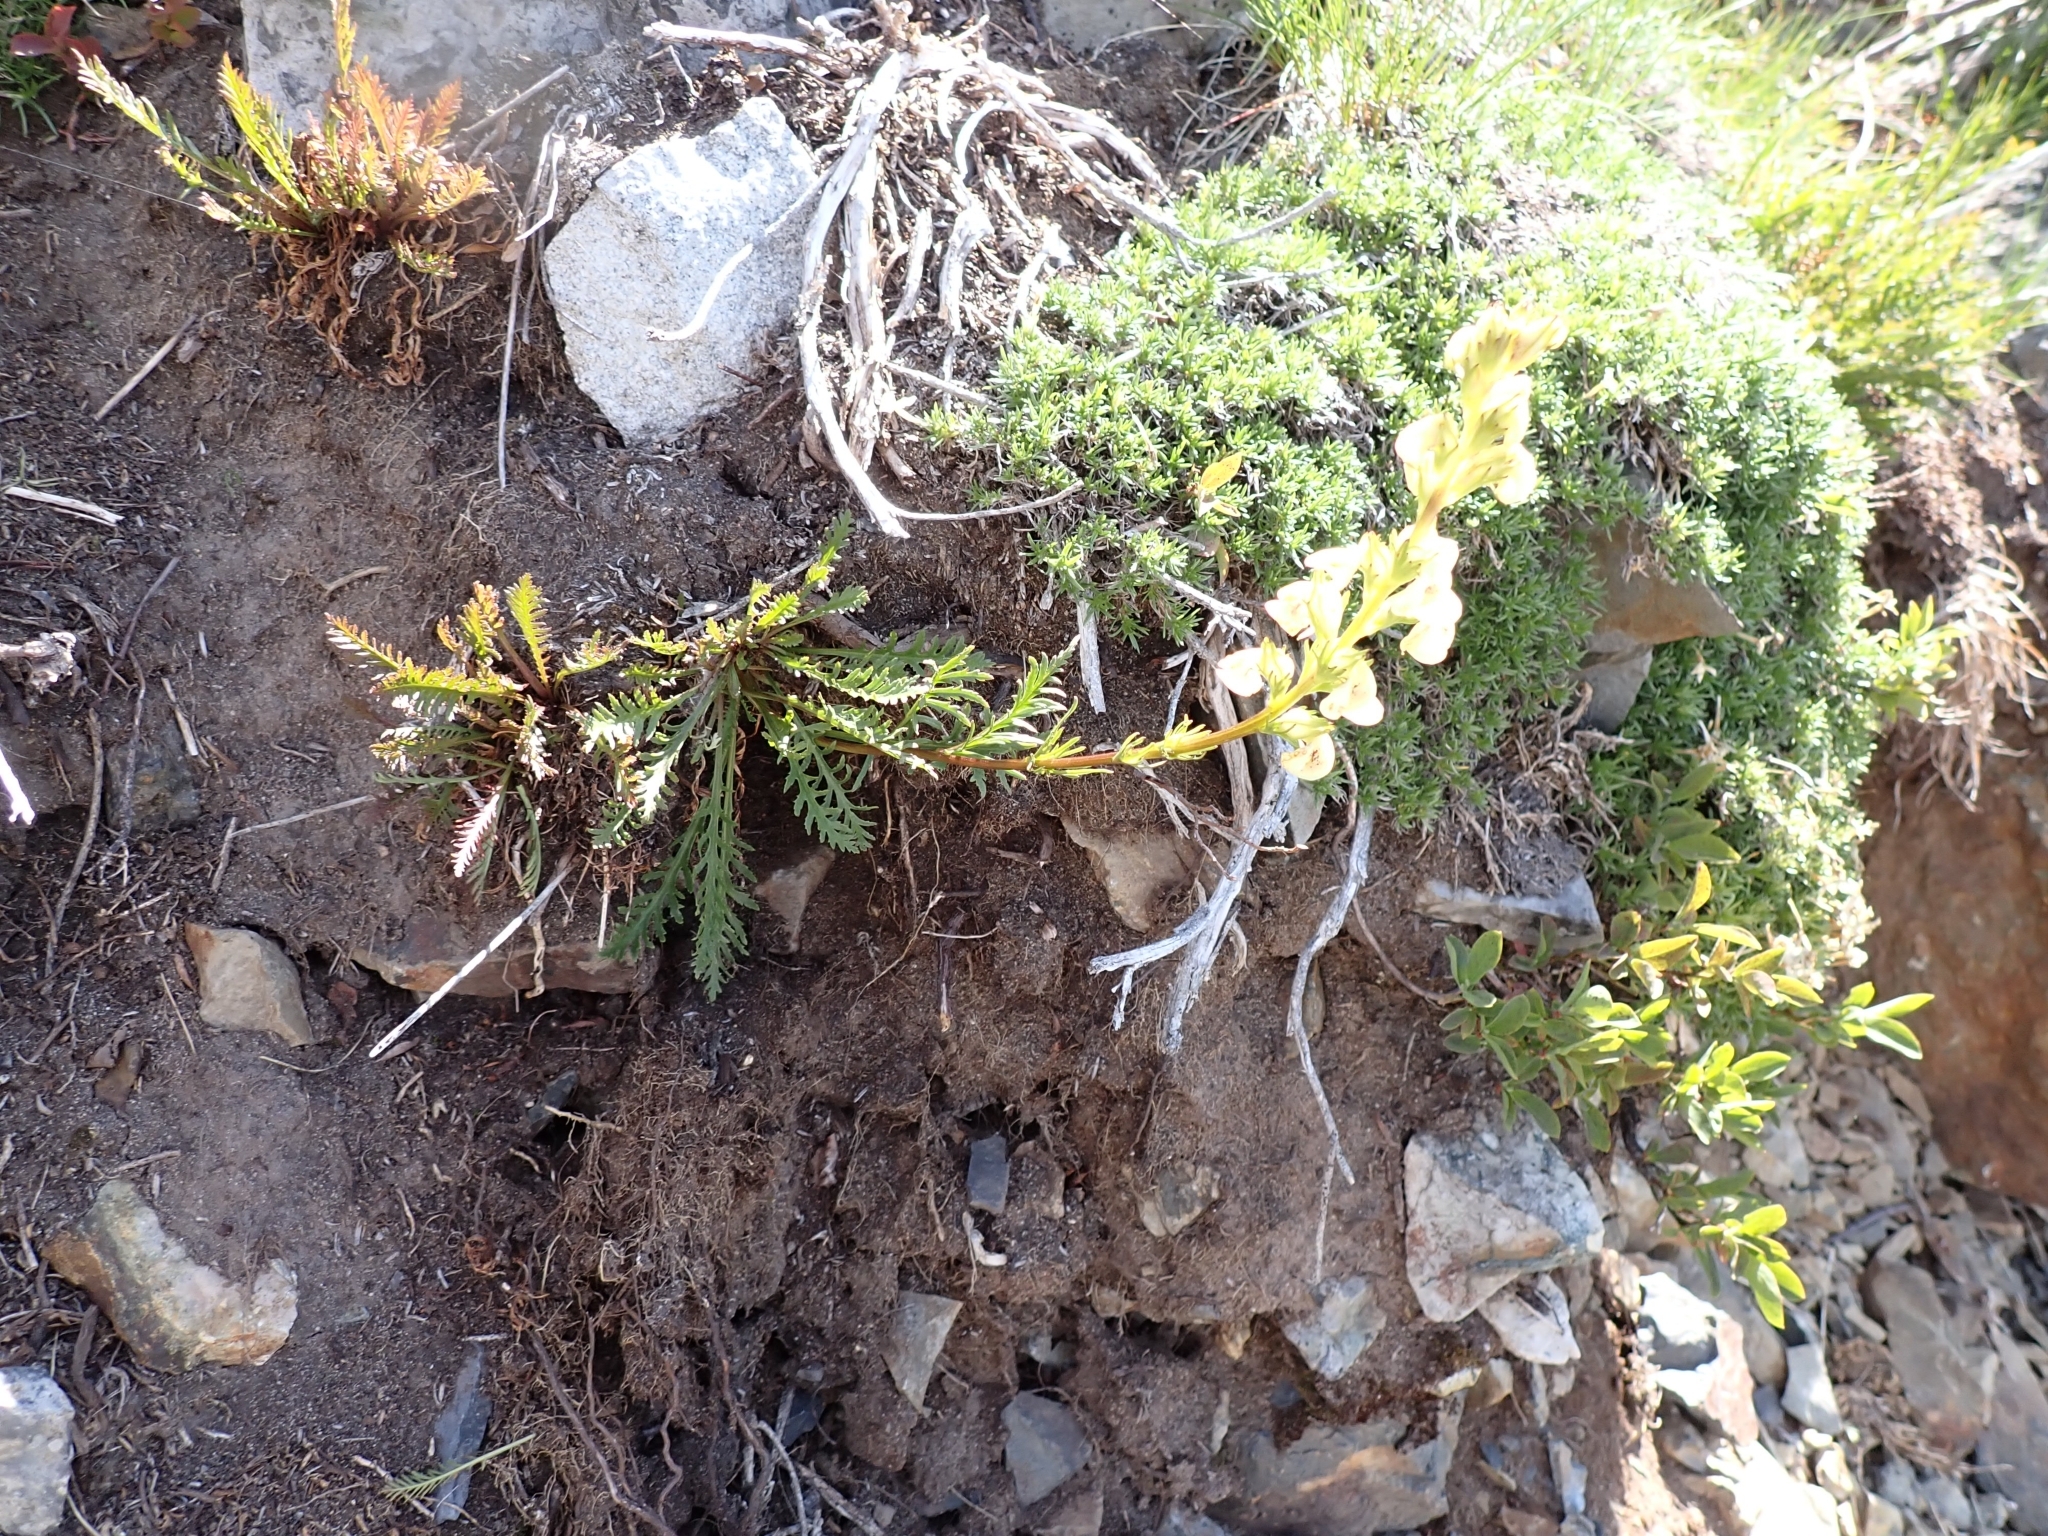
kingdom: Plantae
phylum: Tracheophyta
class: Magnoliopsida
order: Lamiales
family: Orobanchaceae
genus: Pedicularis
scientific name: Pedicularis contorta
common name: Coiled lousewort
